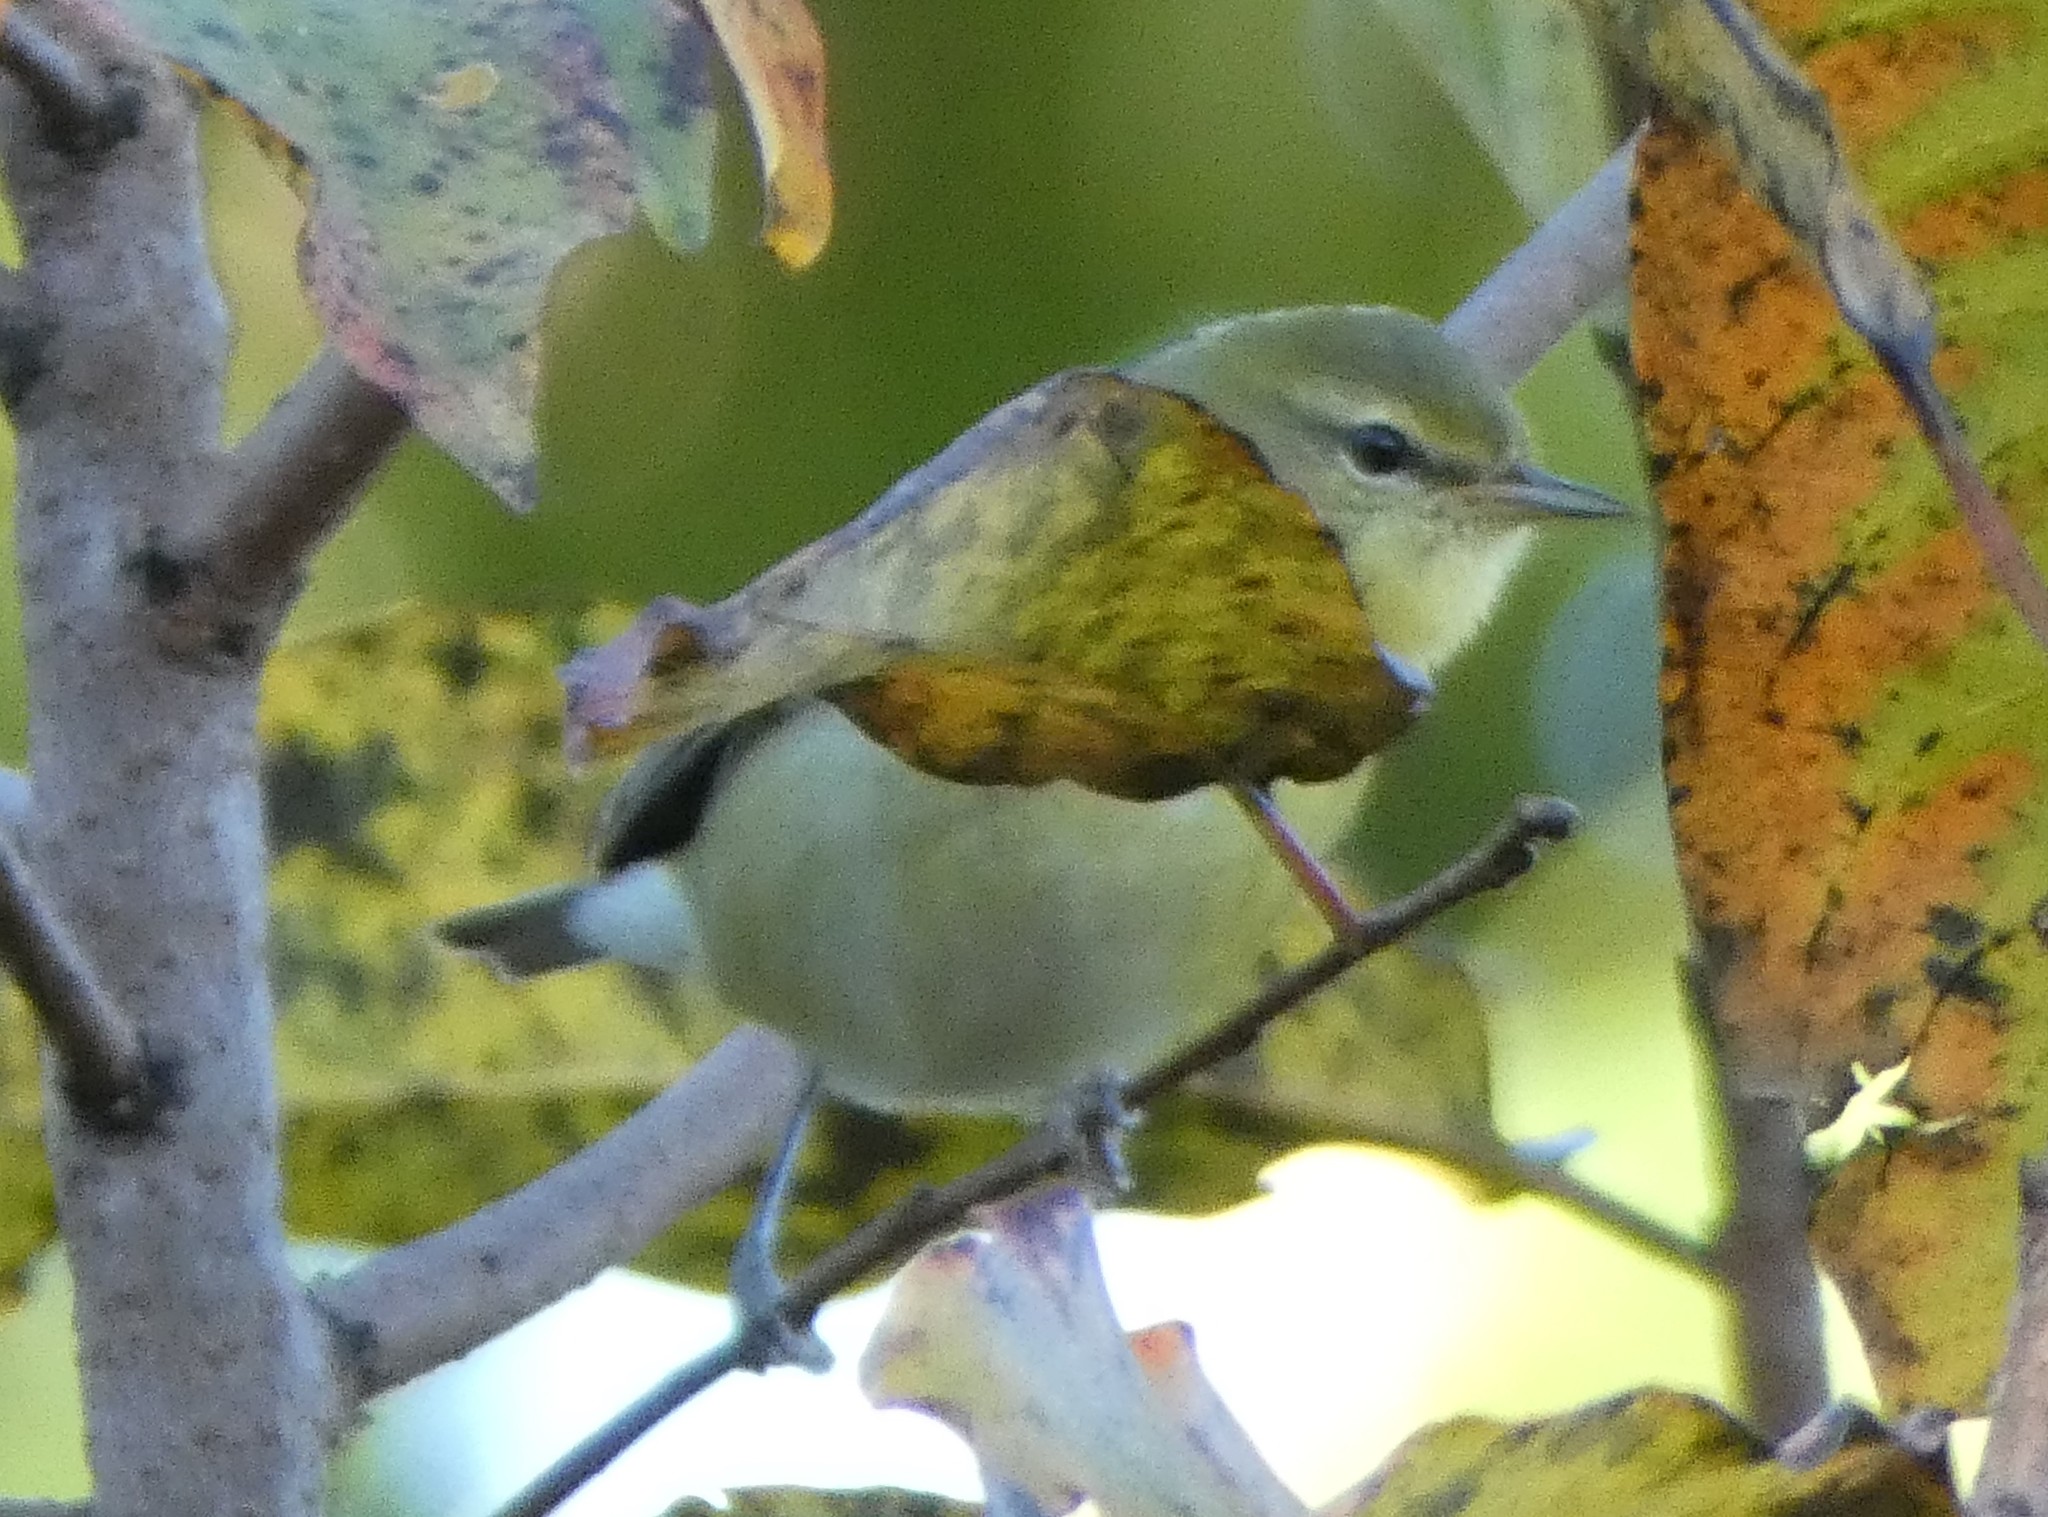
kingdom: Animalia
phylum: Chordata
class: Aves
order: Passeriformes
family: Parulidae
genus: Leiothlypis
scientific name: Leiothlypis peregrina
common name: Tennessee warbler
